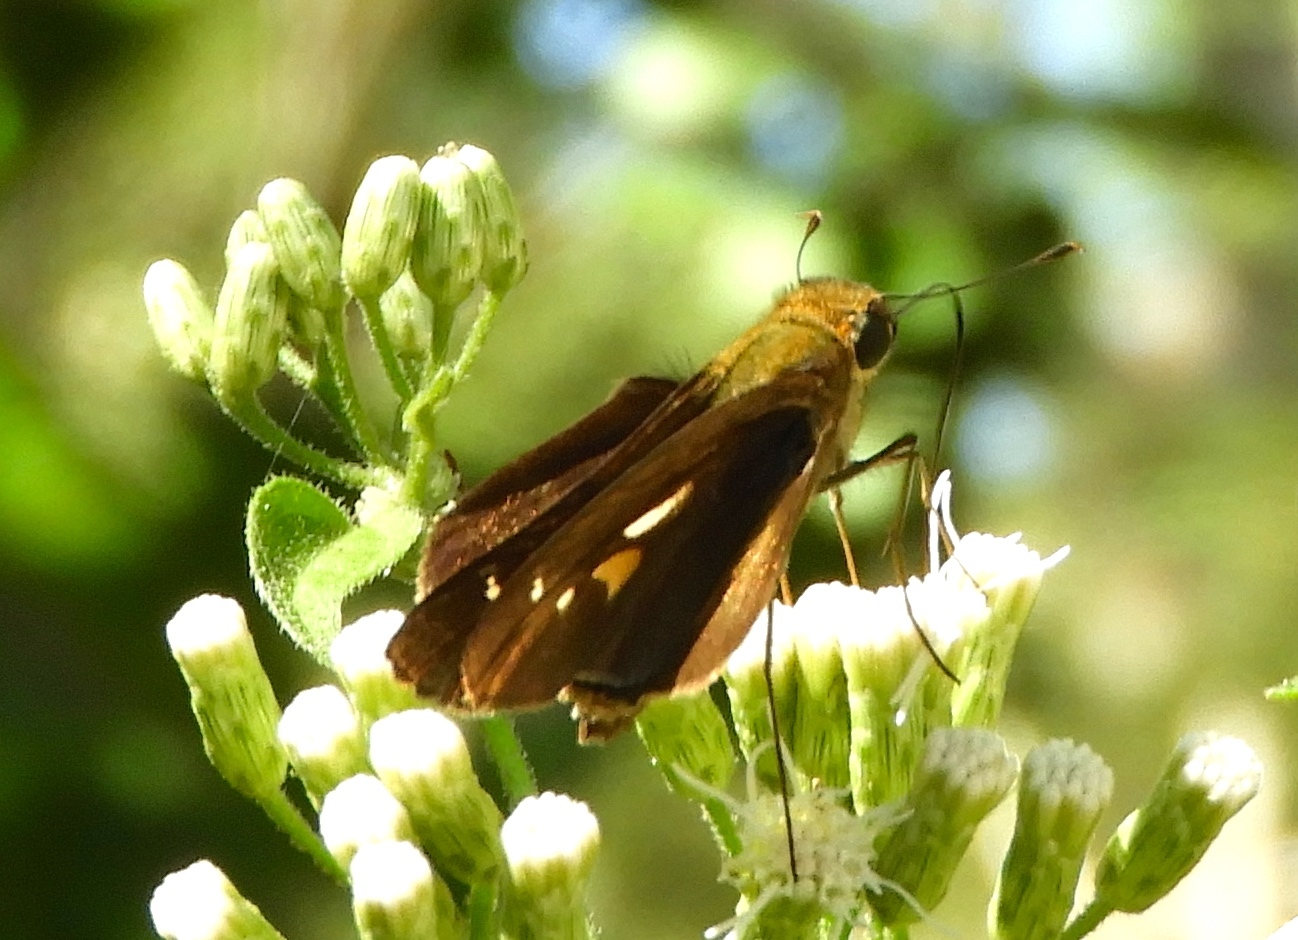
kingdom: Animalia
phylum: Arthropoda
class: Insecta
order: Lepidoptera
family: Hesperiidae
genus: Panoquina
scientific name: Panoquina
